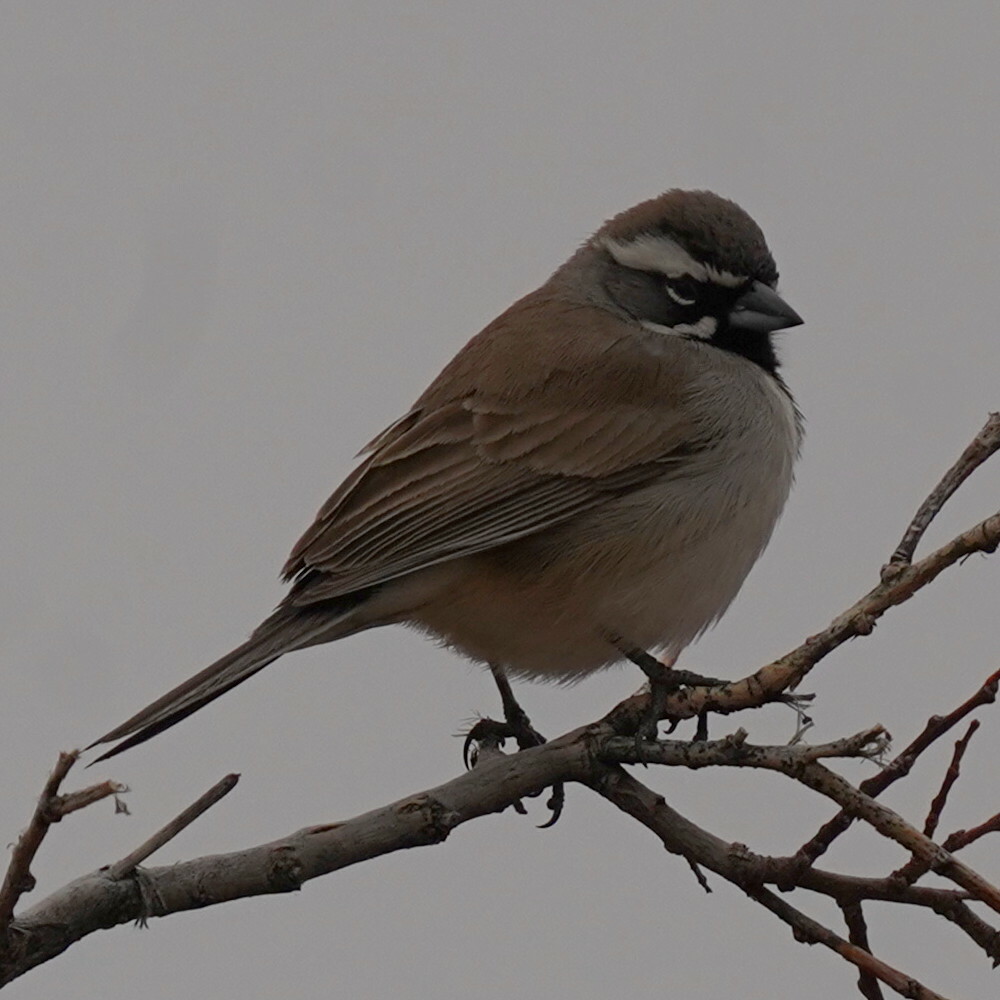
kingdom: Animalia
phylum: Chordata
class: Aves
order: Passeriformes
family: Passerellidae
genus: Amphispiza
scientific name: Amphispiza bilineata
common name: Black-throated sparrow
